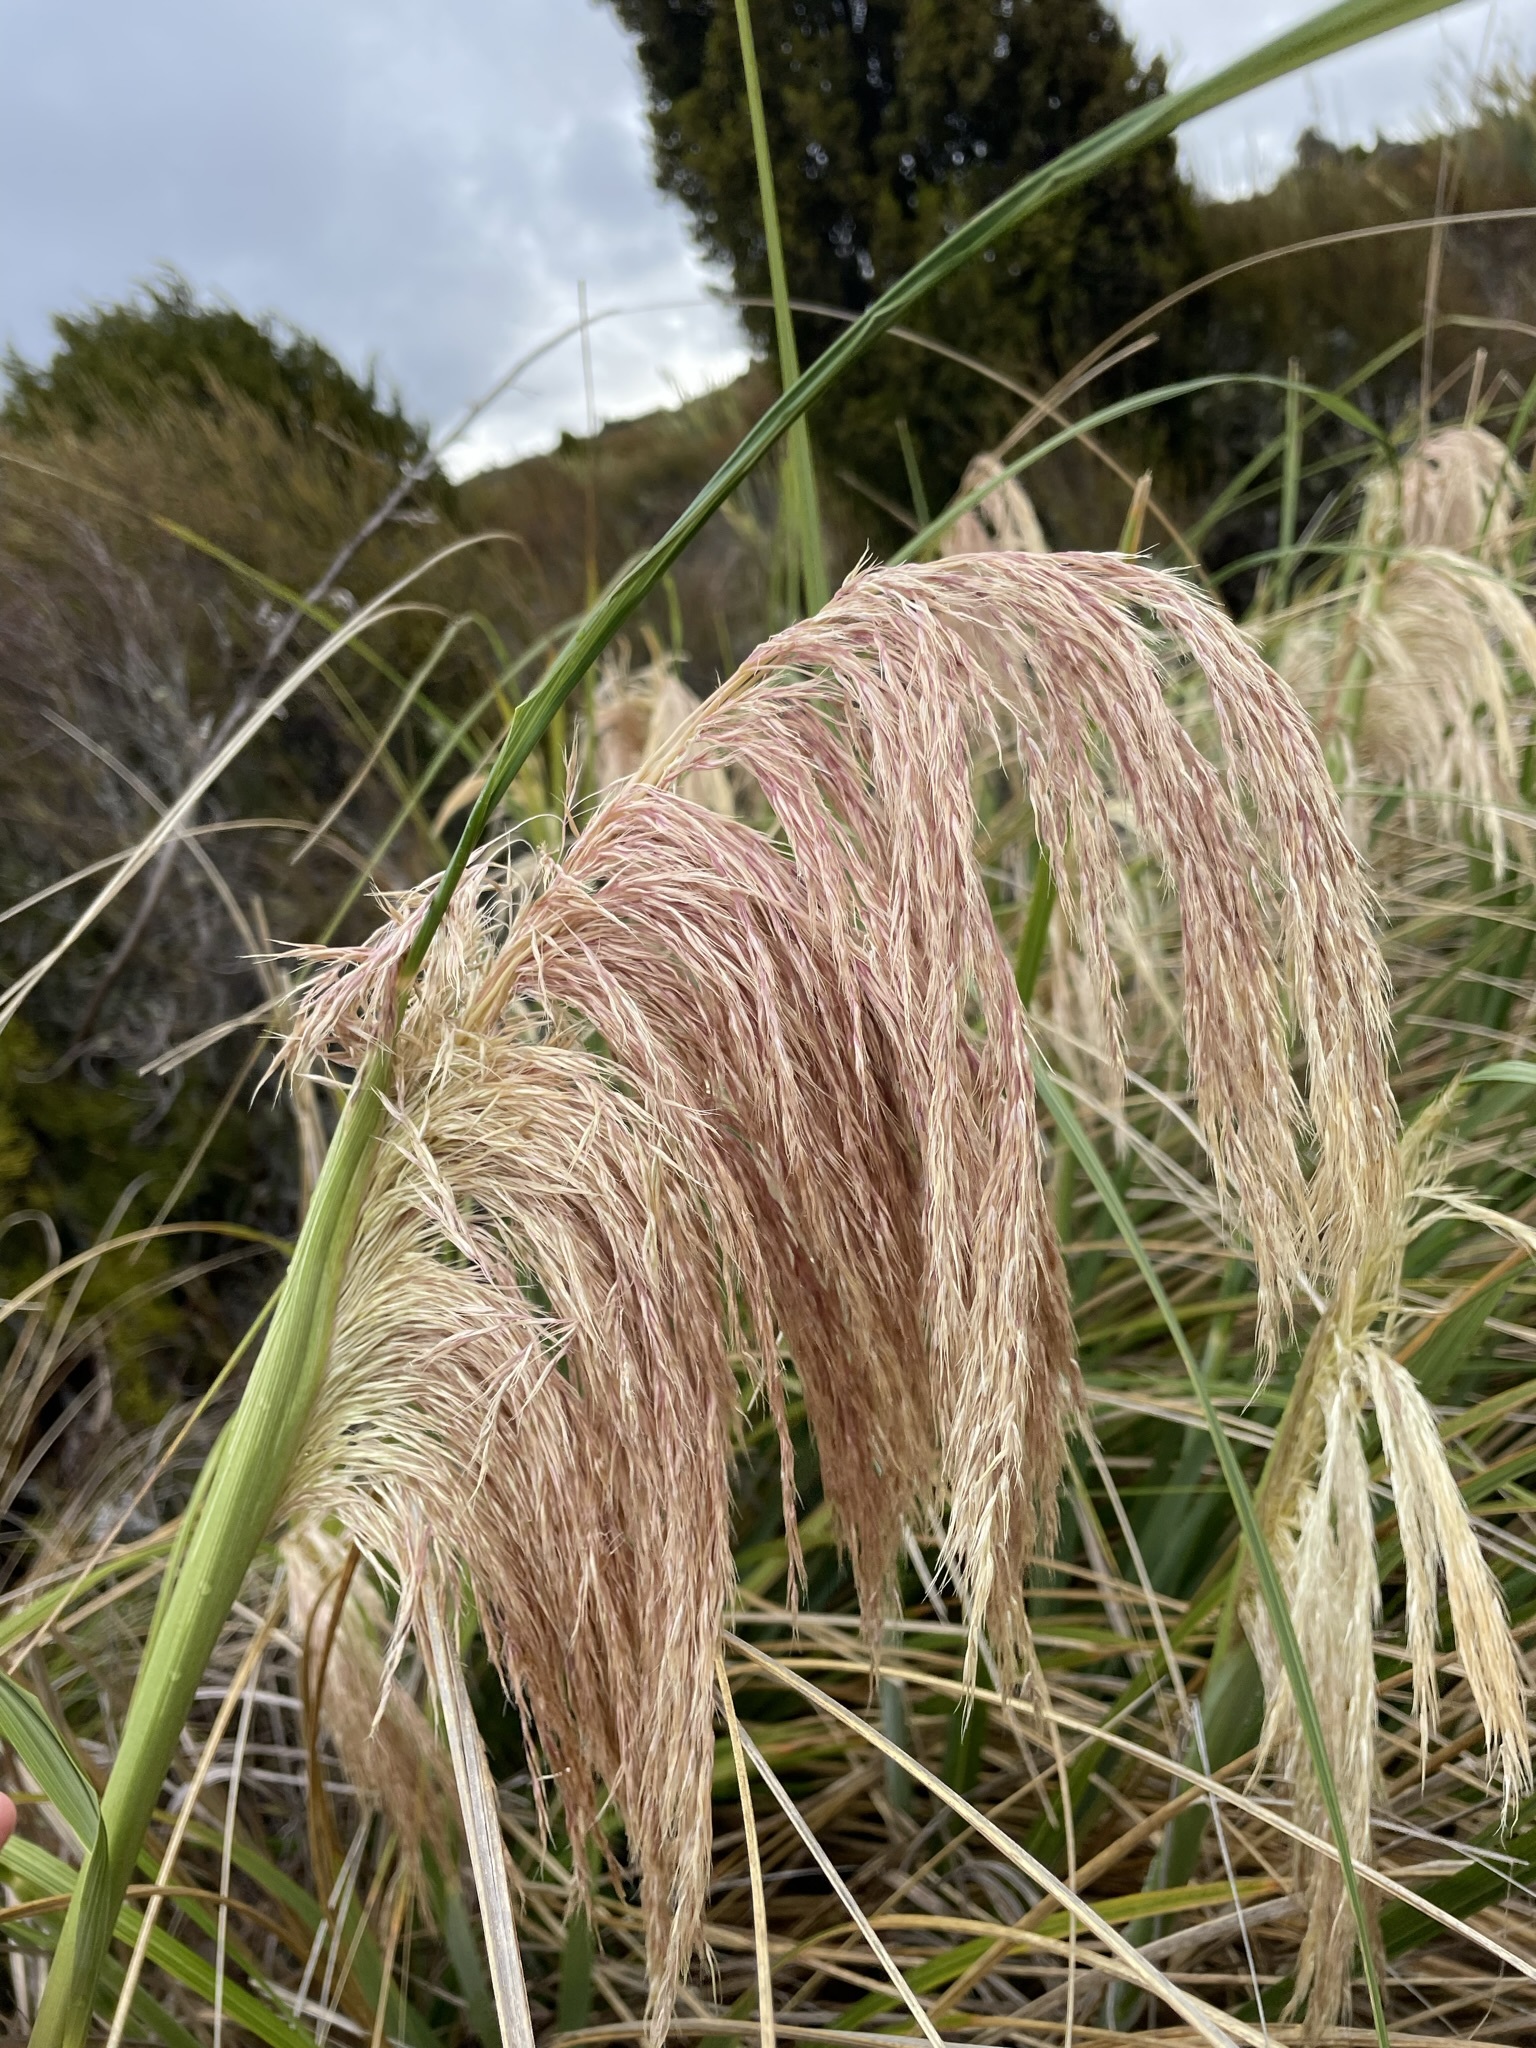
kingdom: Plantae
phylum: Tracheophyta
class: Liliopsida
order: Poales
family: Poaceae
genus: Austroderia
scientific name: Austroderia fulvida
